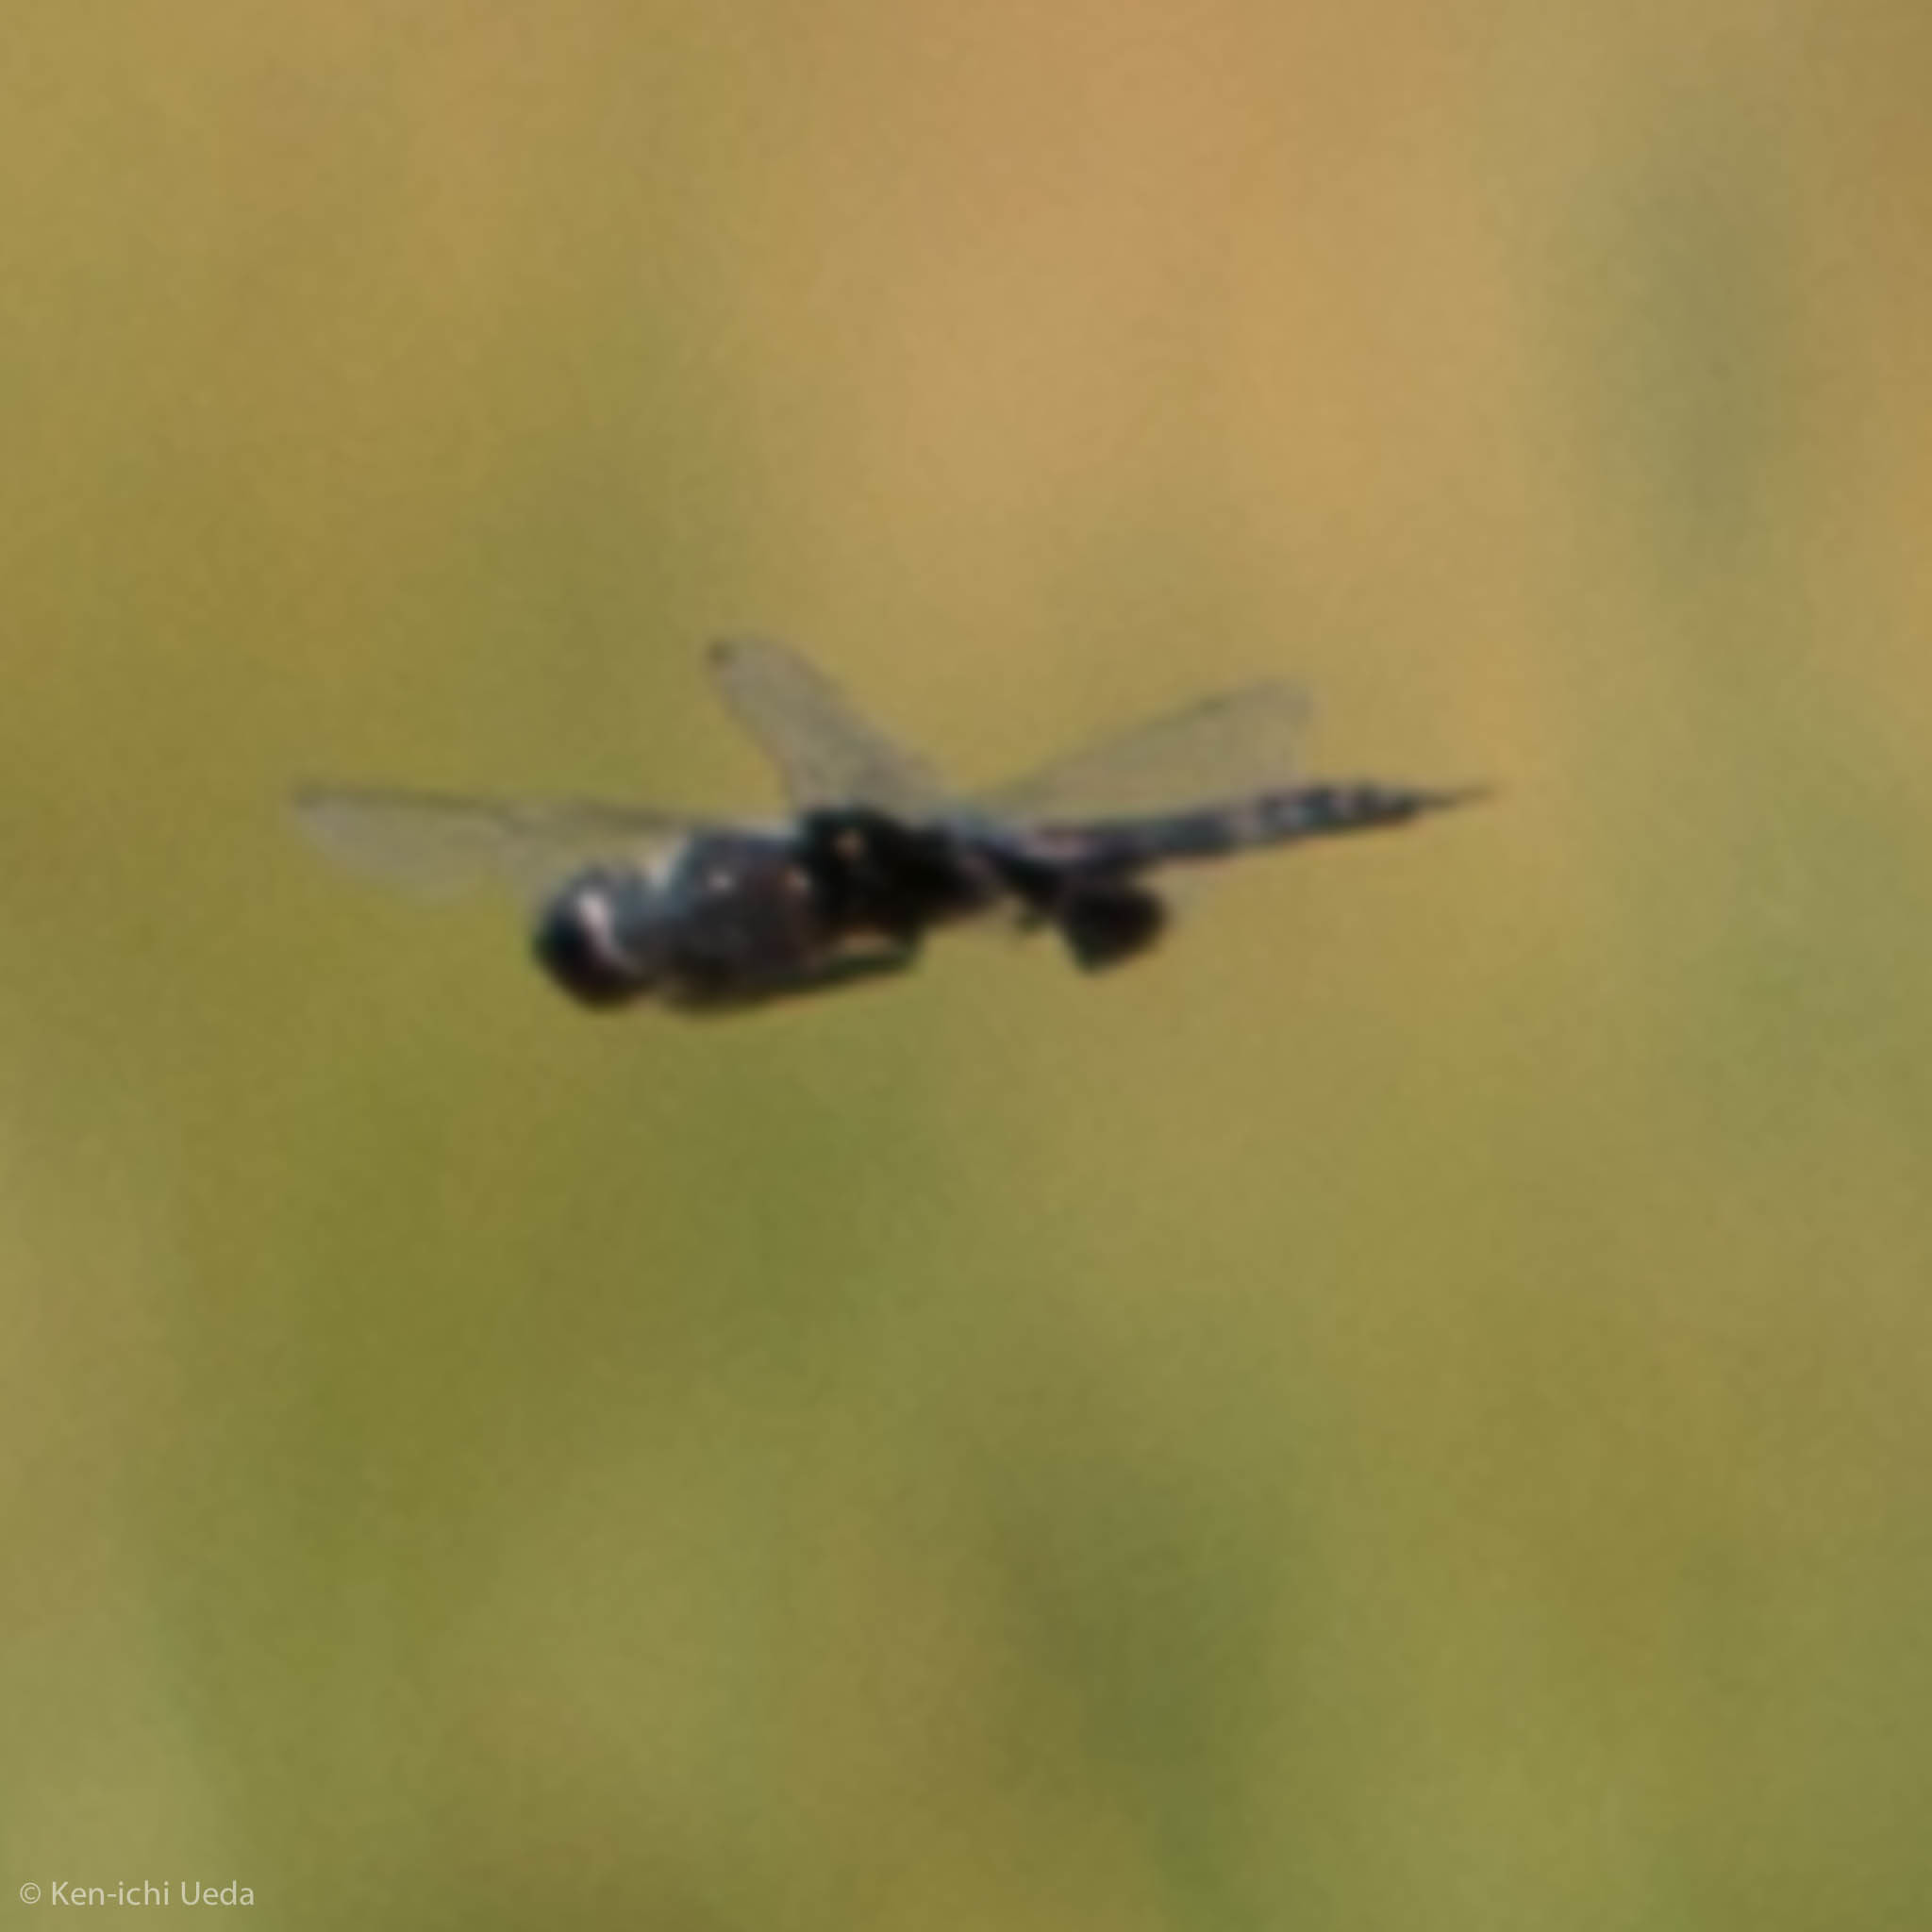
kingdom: Animalia
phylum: Arthropoda
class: Insecta
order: Odonata
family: Libellulidae
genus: Tramea
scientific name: Tramea lacerata
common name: Black saddlebags
